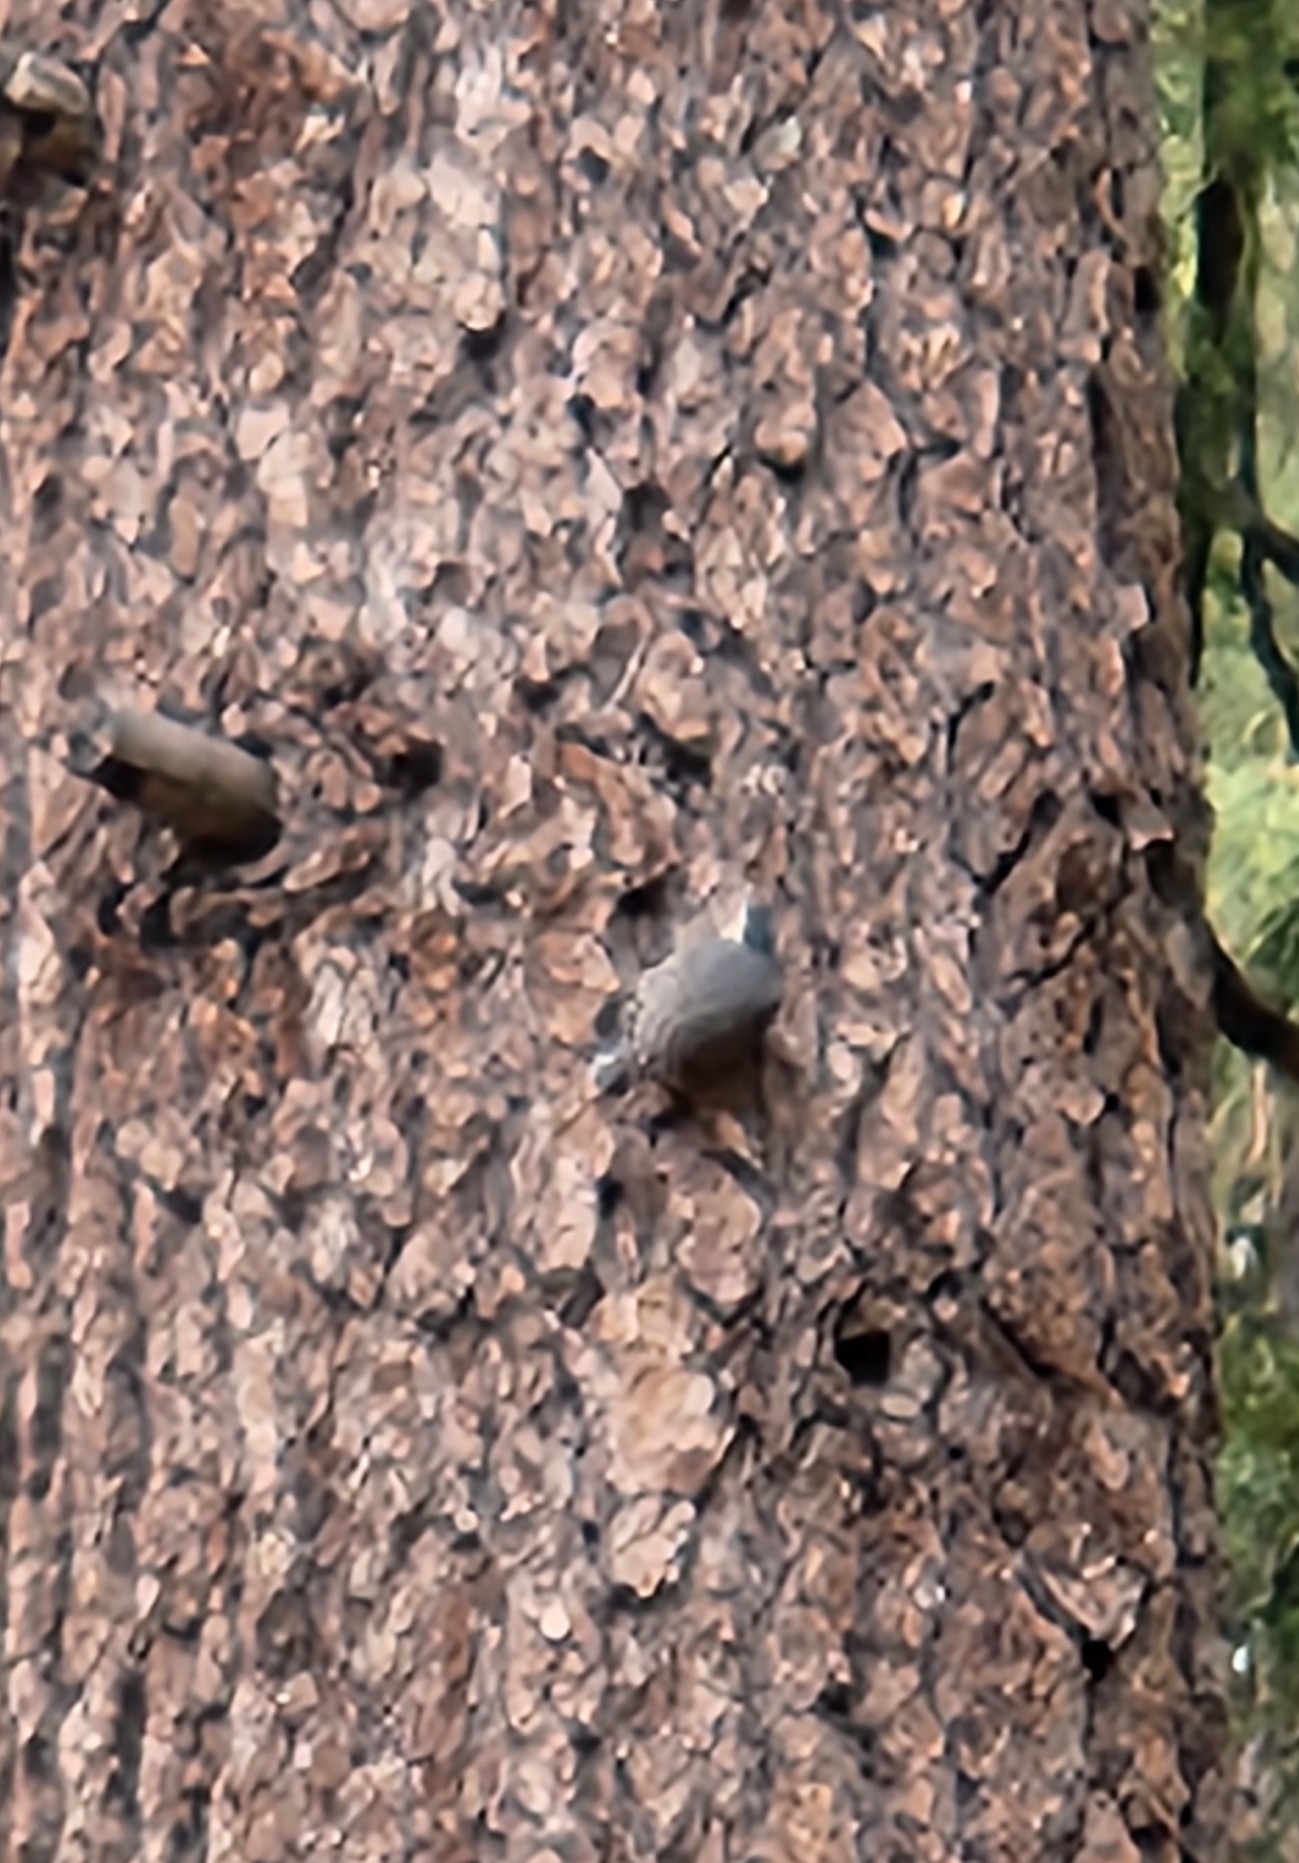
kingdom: Animalia
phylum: Chordata
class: Aves
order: Passeriformes
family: Sittidae
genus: Sitta
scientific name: Sitta carolinensis
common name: White-breasted nuthatch
